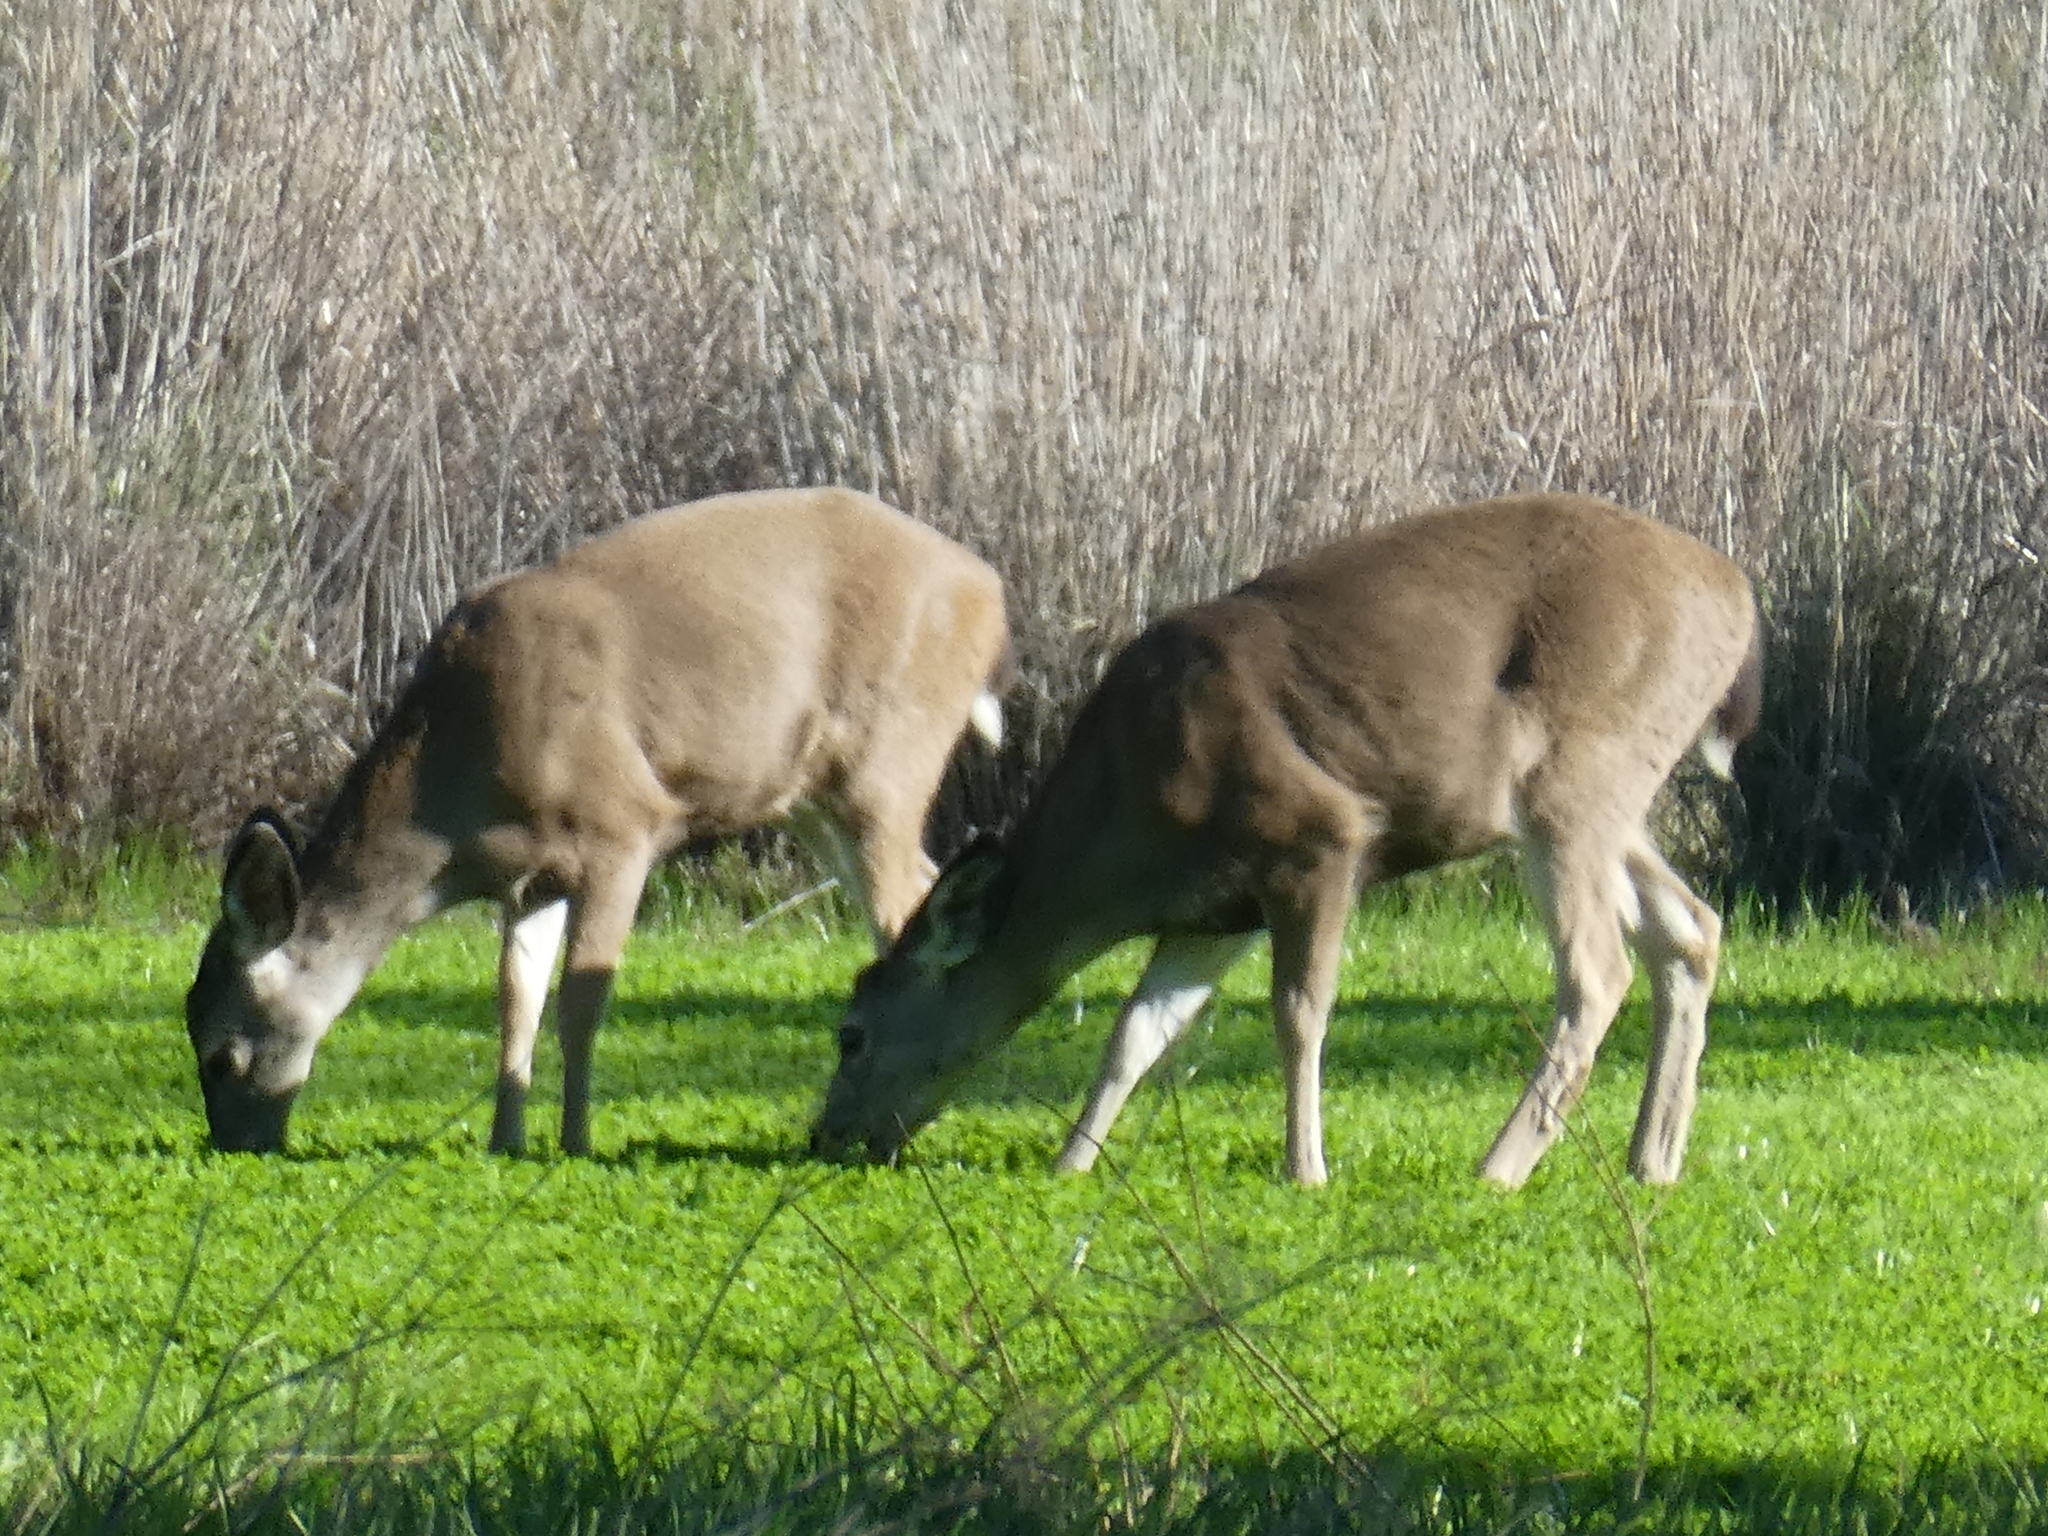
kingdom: Animalia
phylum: Chordata
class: Mammalia
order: Artiodactyla
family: Cervidae
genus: Odocoileus
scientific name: Odocoileus hemionus
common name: Mule deer
